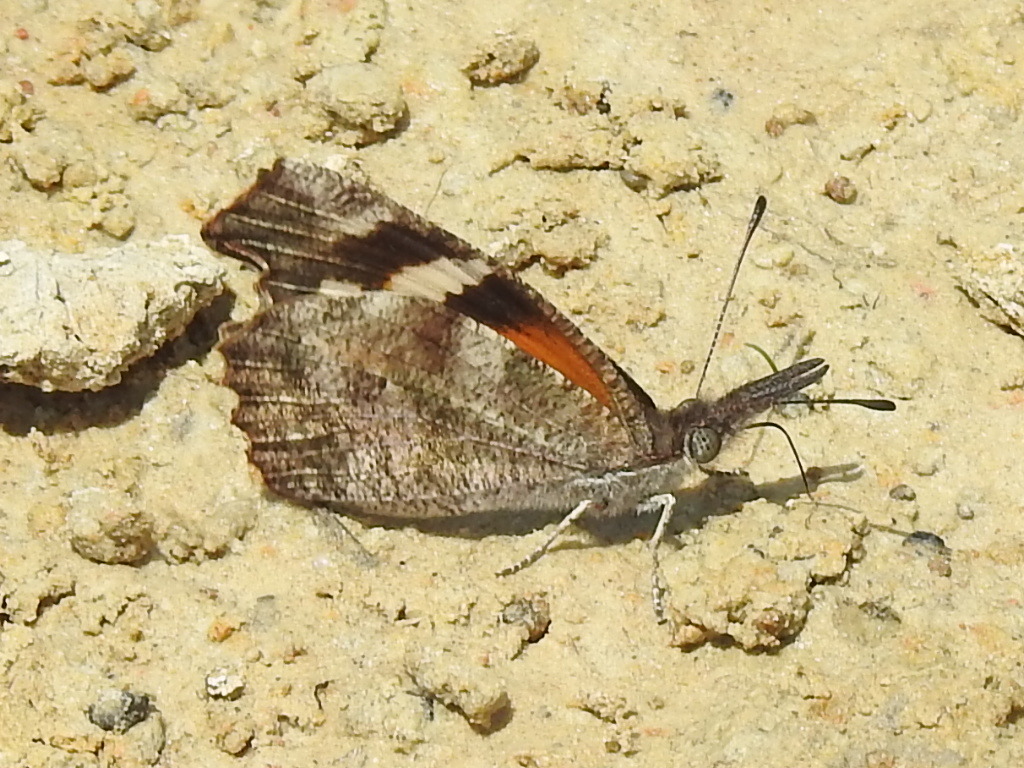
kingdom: Animalia
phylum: Arthropoda
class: Insecta
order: Lepidoptera
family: Nymphalidae
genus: Libytheana
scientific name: Libytheana carinenta
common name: American snout
